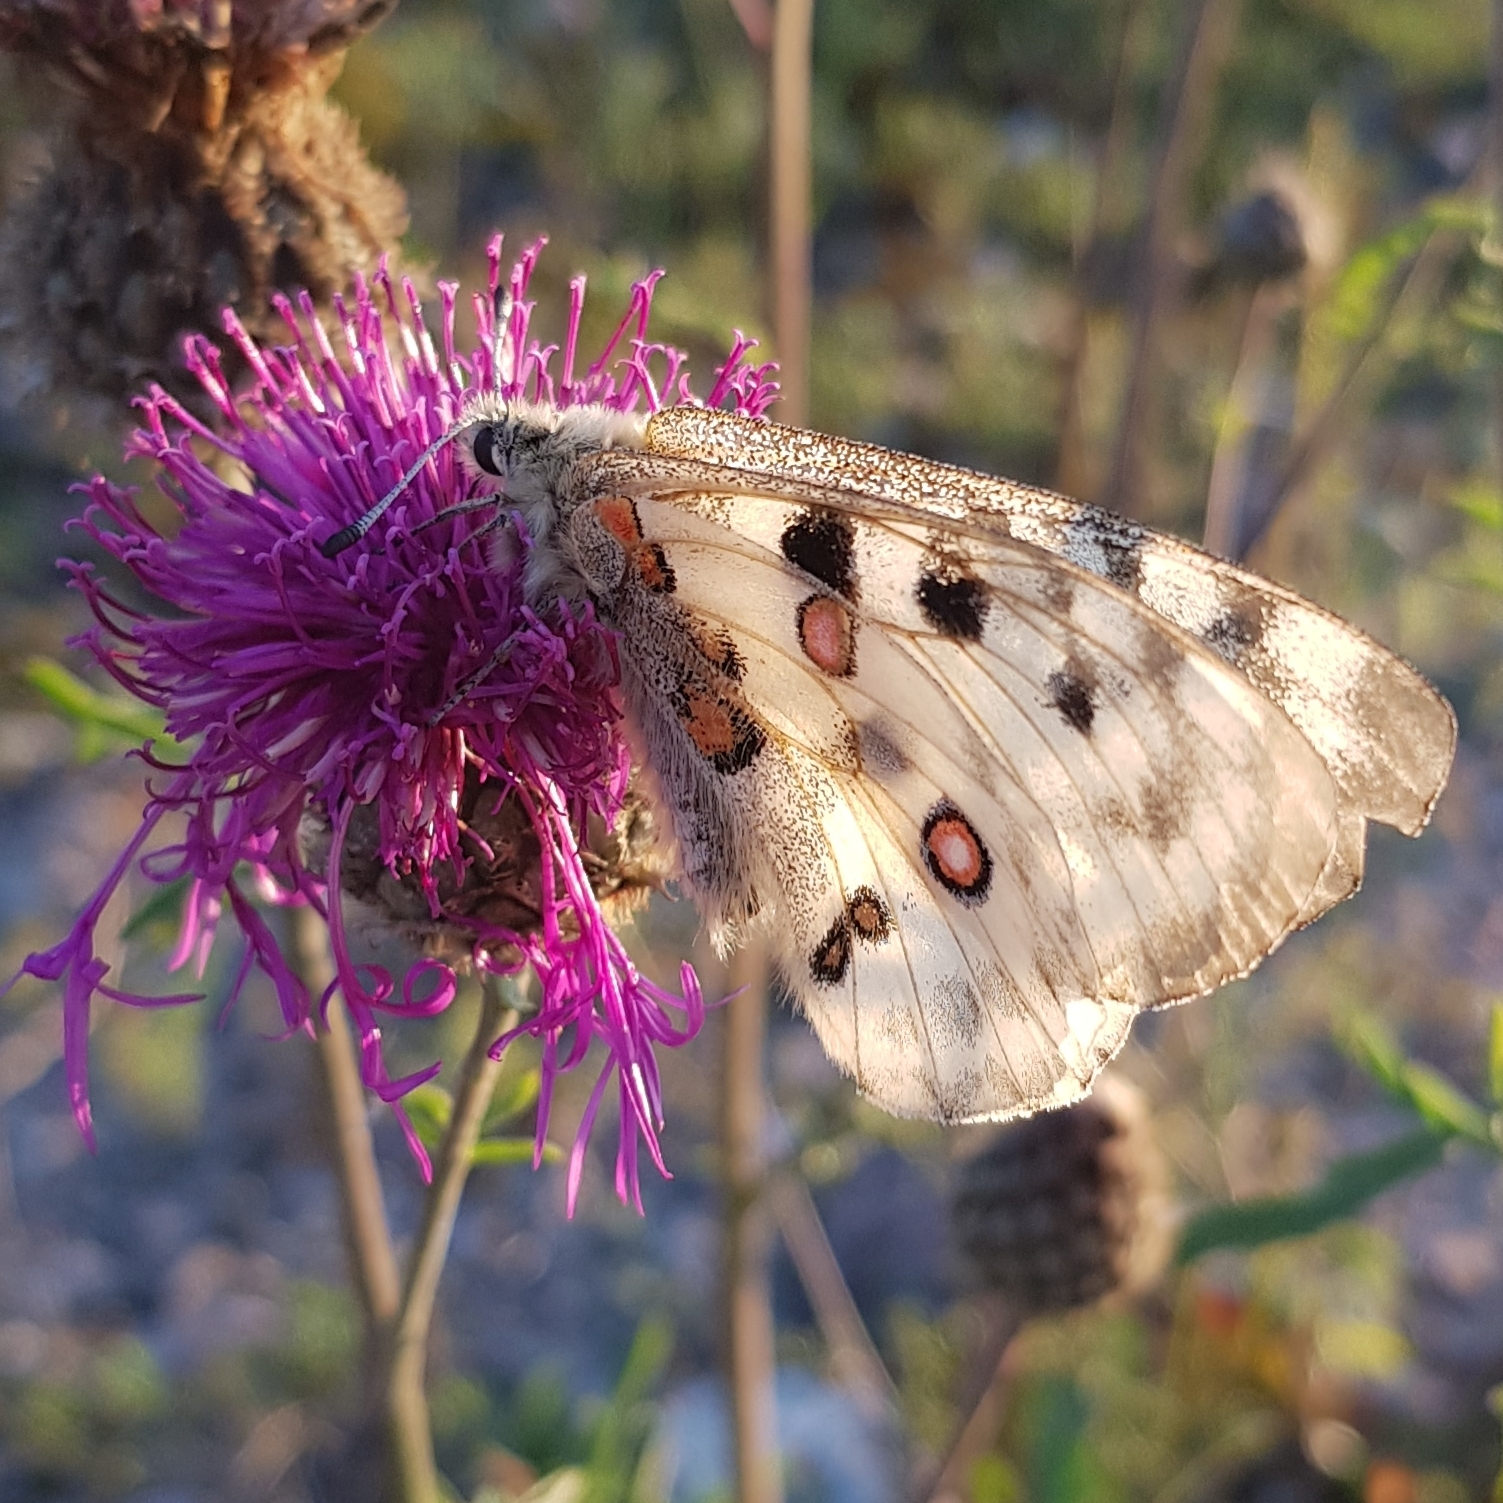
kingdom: Animalia
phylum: Arthropoda
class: Insecta
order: Lepidoptera
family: Papilionidae
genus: Parnassius
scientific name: Parnassius apollo
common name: Apollo
